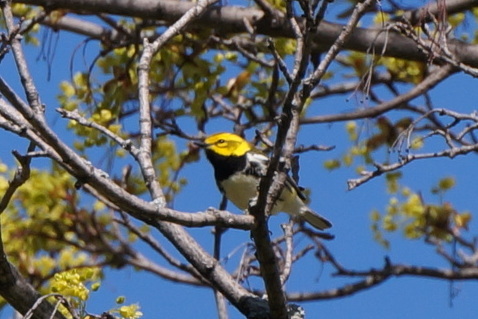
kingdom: Animalia
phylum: Chordata
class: Aves
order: Passeriformes
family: Parulidae
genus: Setophaga
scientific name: Setophaga virens
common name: Black-throated green warbler
